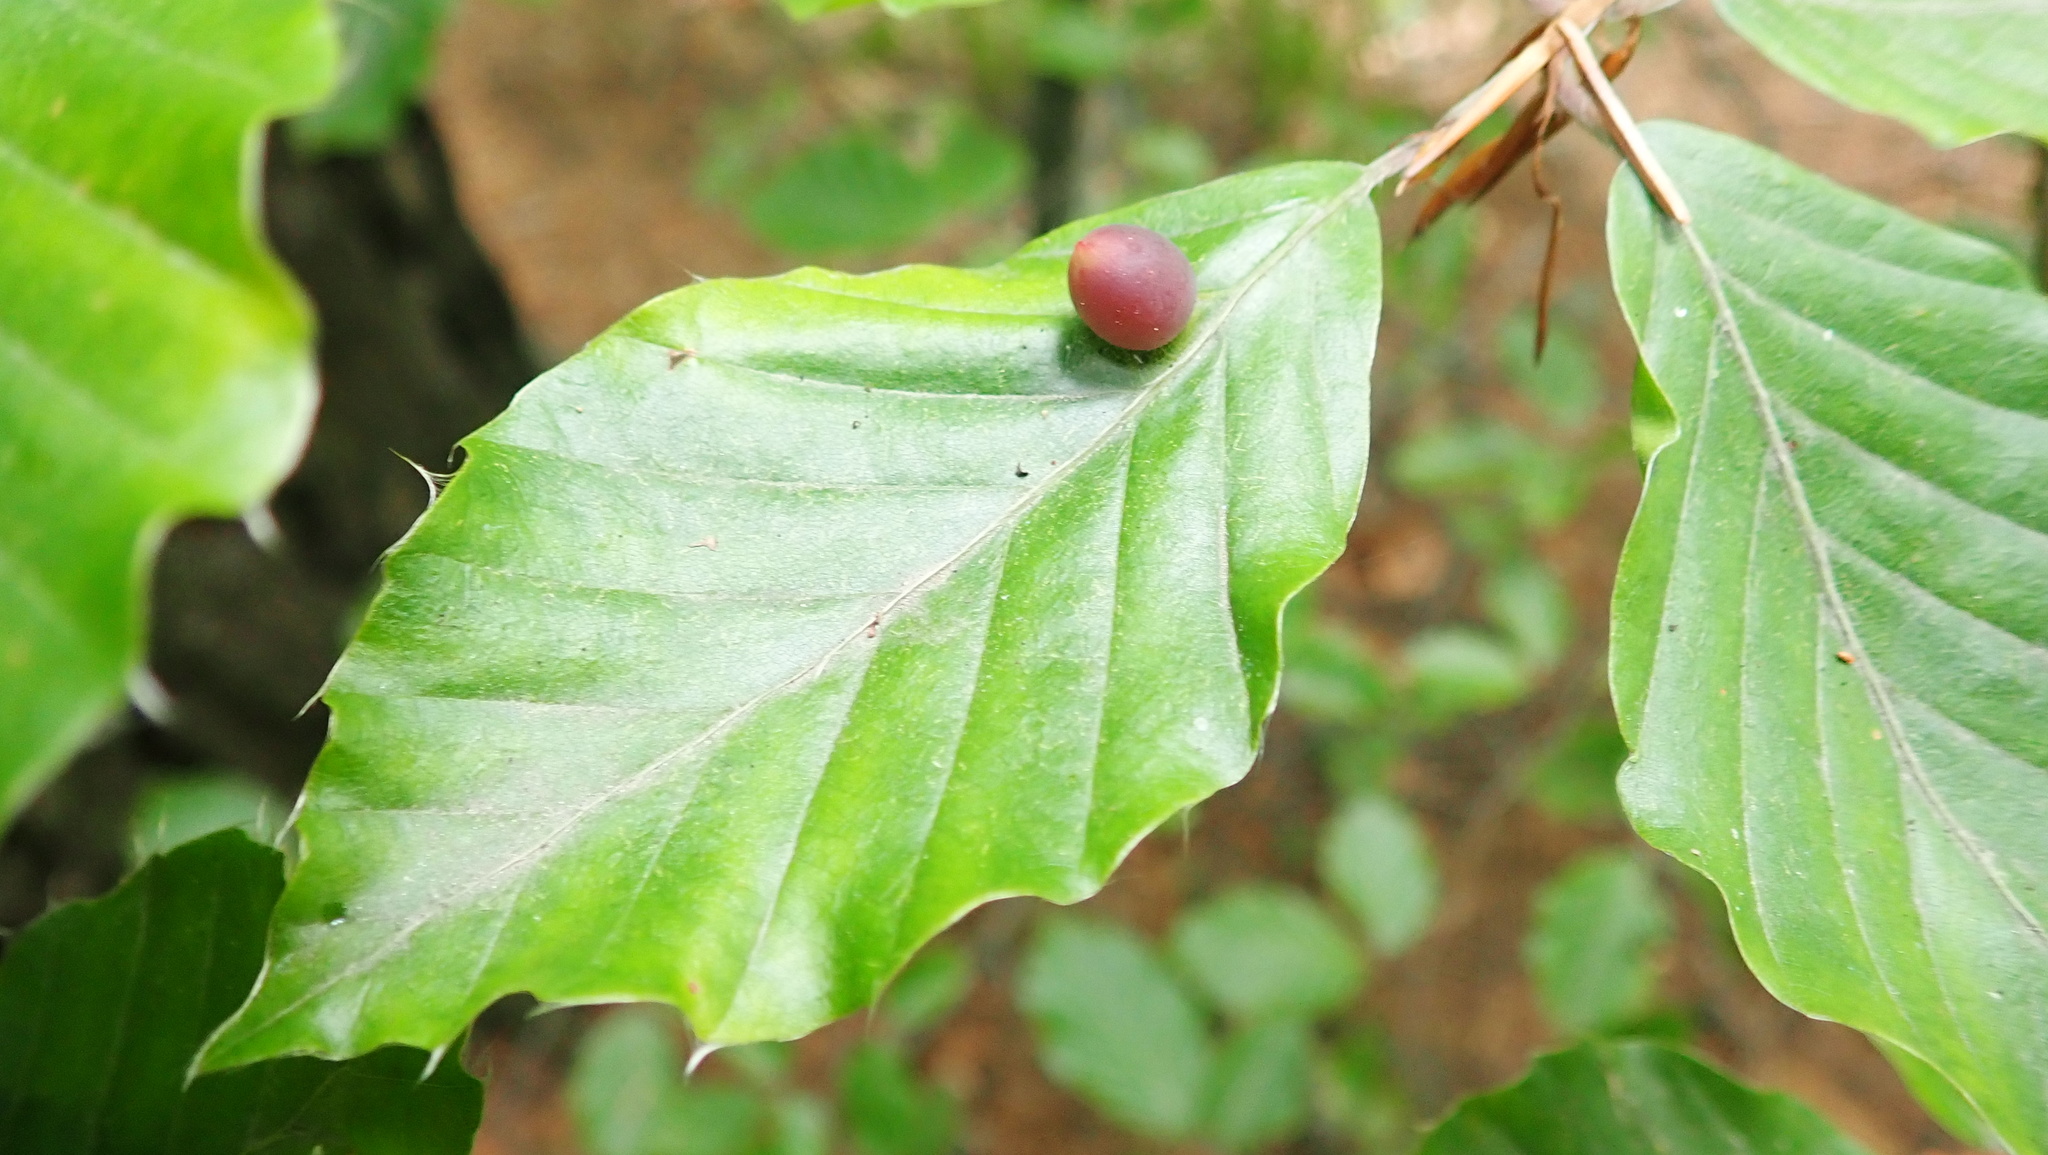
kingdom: Animalia
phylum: Arthropoda
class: Insecta
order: Diptera
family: Cecidomyiidae
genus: Mikiola
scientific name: Mikiola fagi
